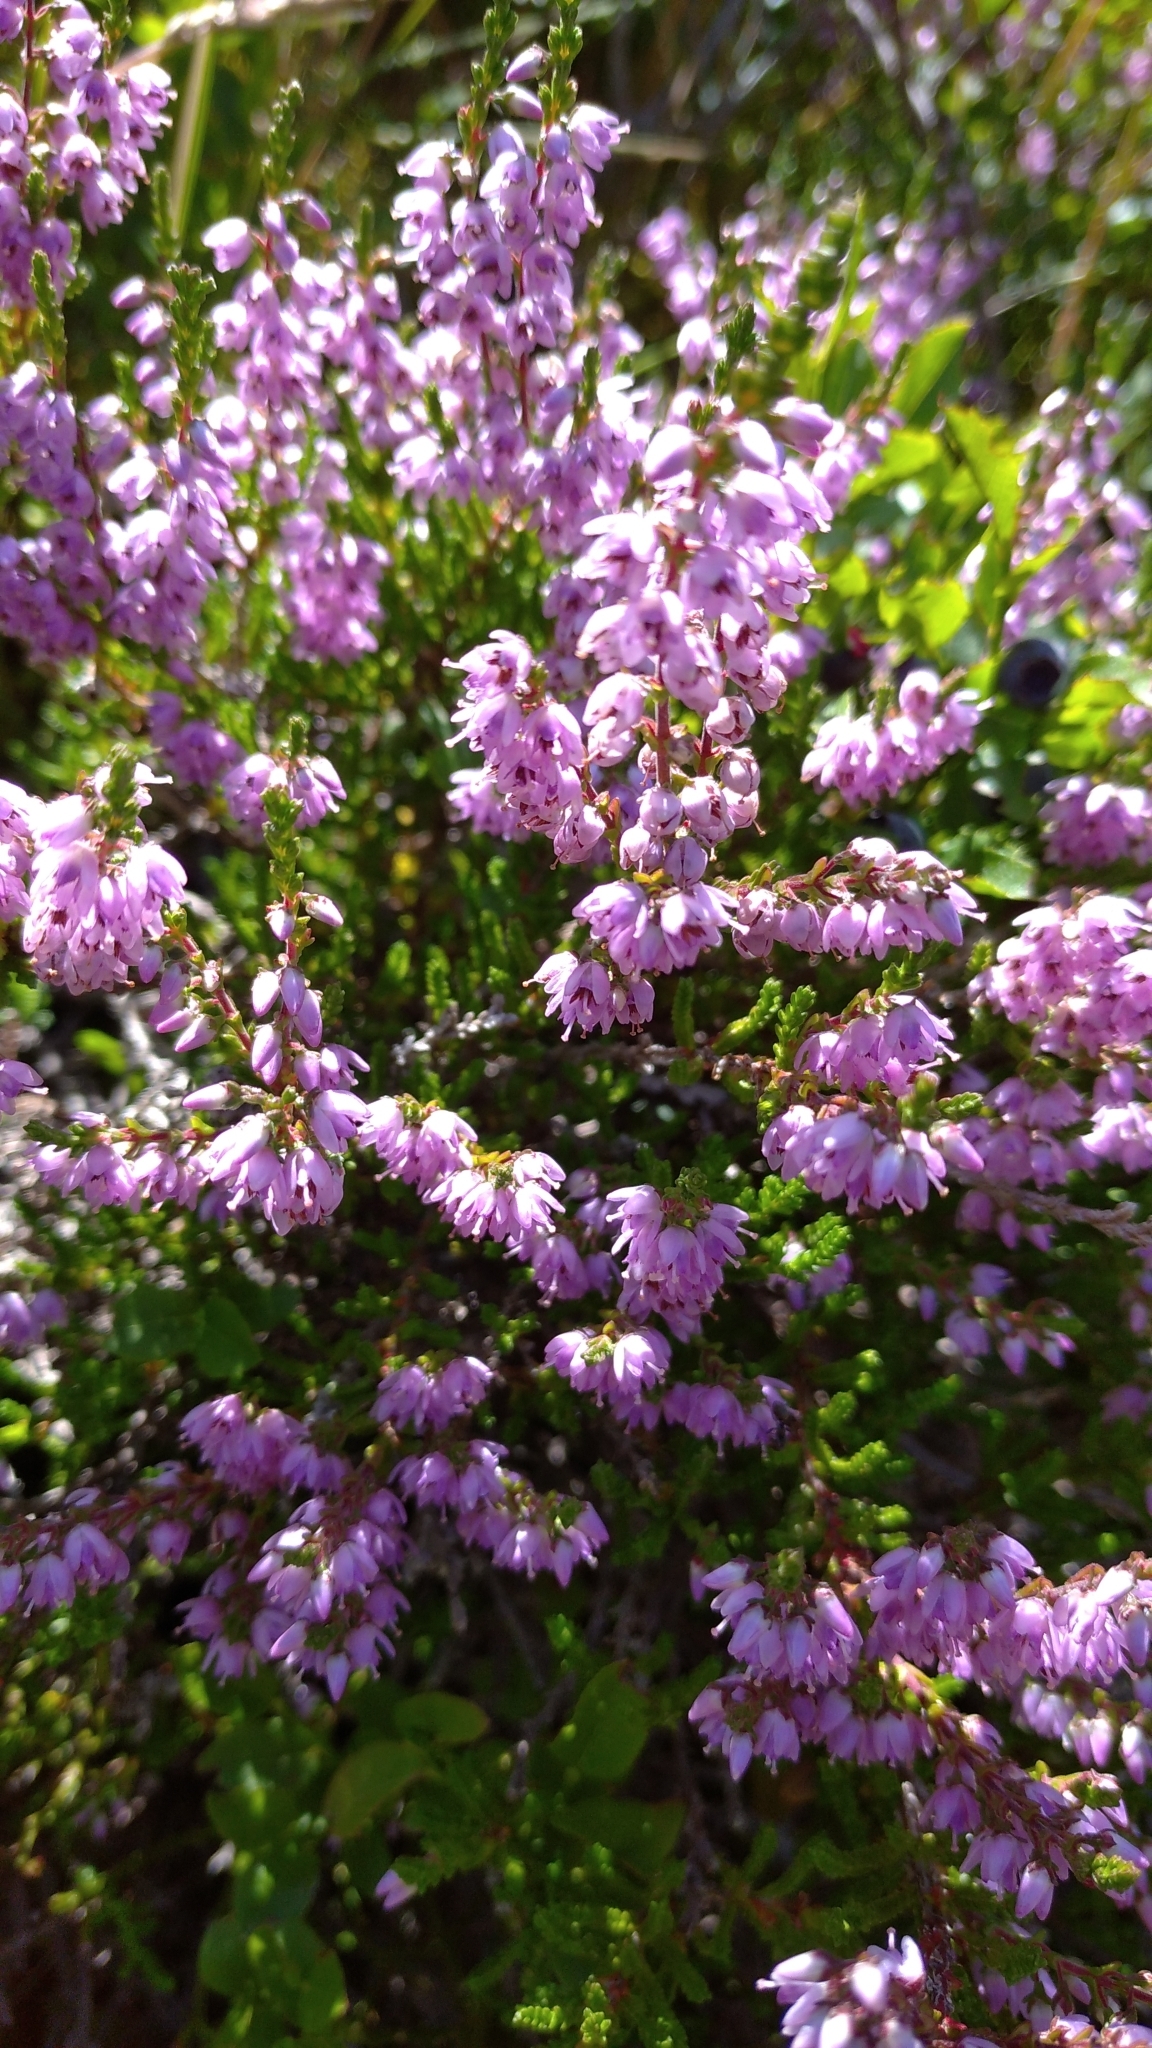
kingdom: Plantae
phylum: Tracheophyta
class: Magnoliopsida
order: Ericales
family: Ericaceae
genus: Calluna
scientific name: Calluna vulgaris
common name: Heather
